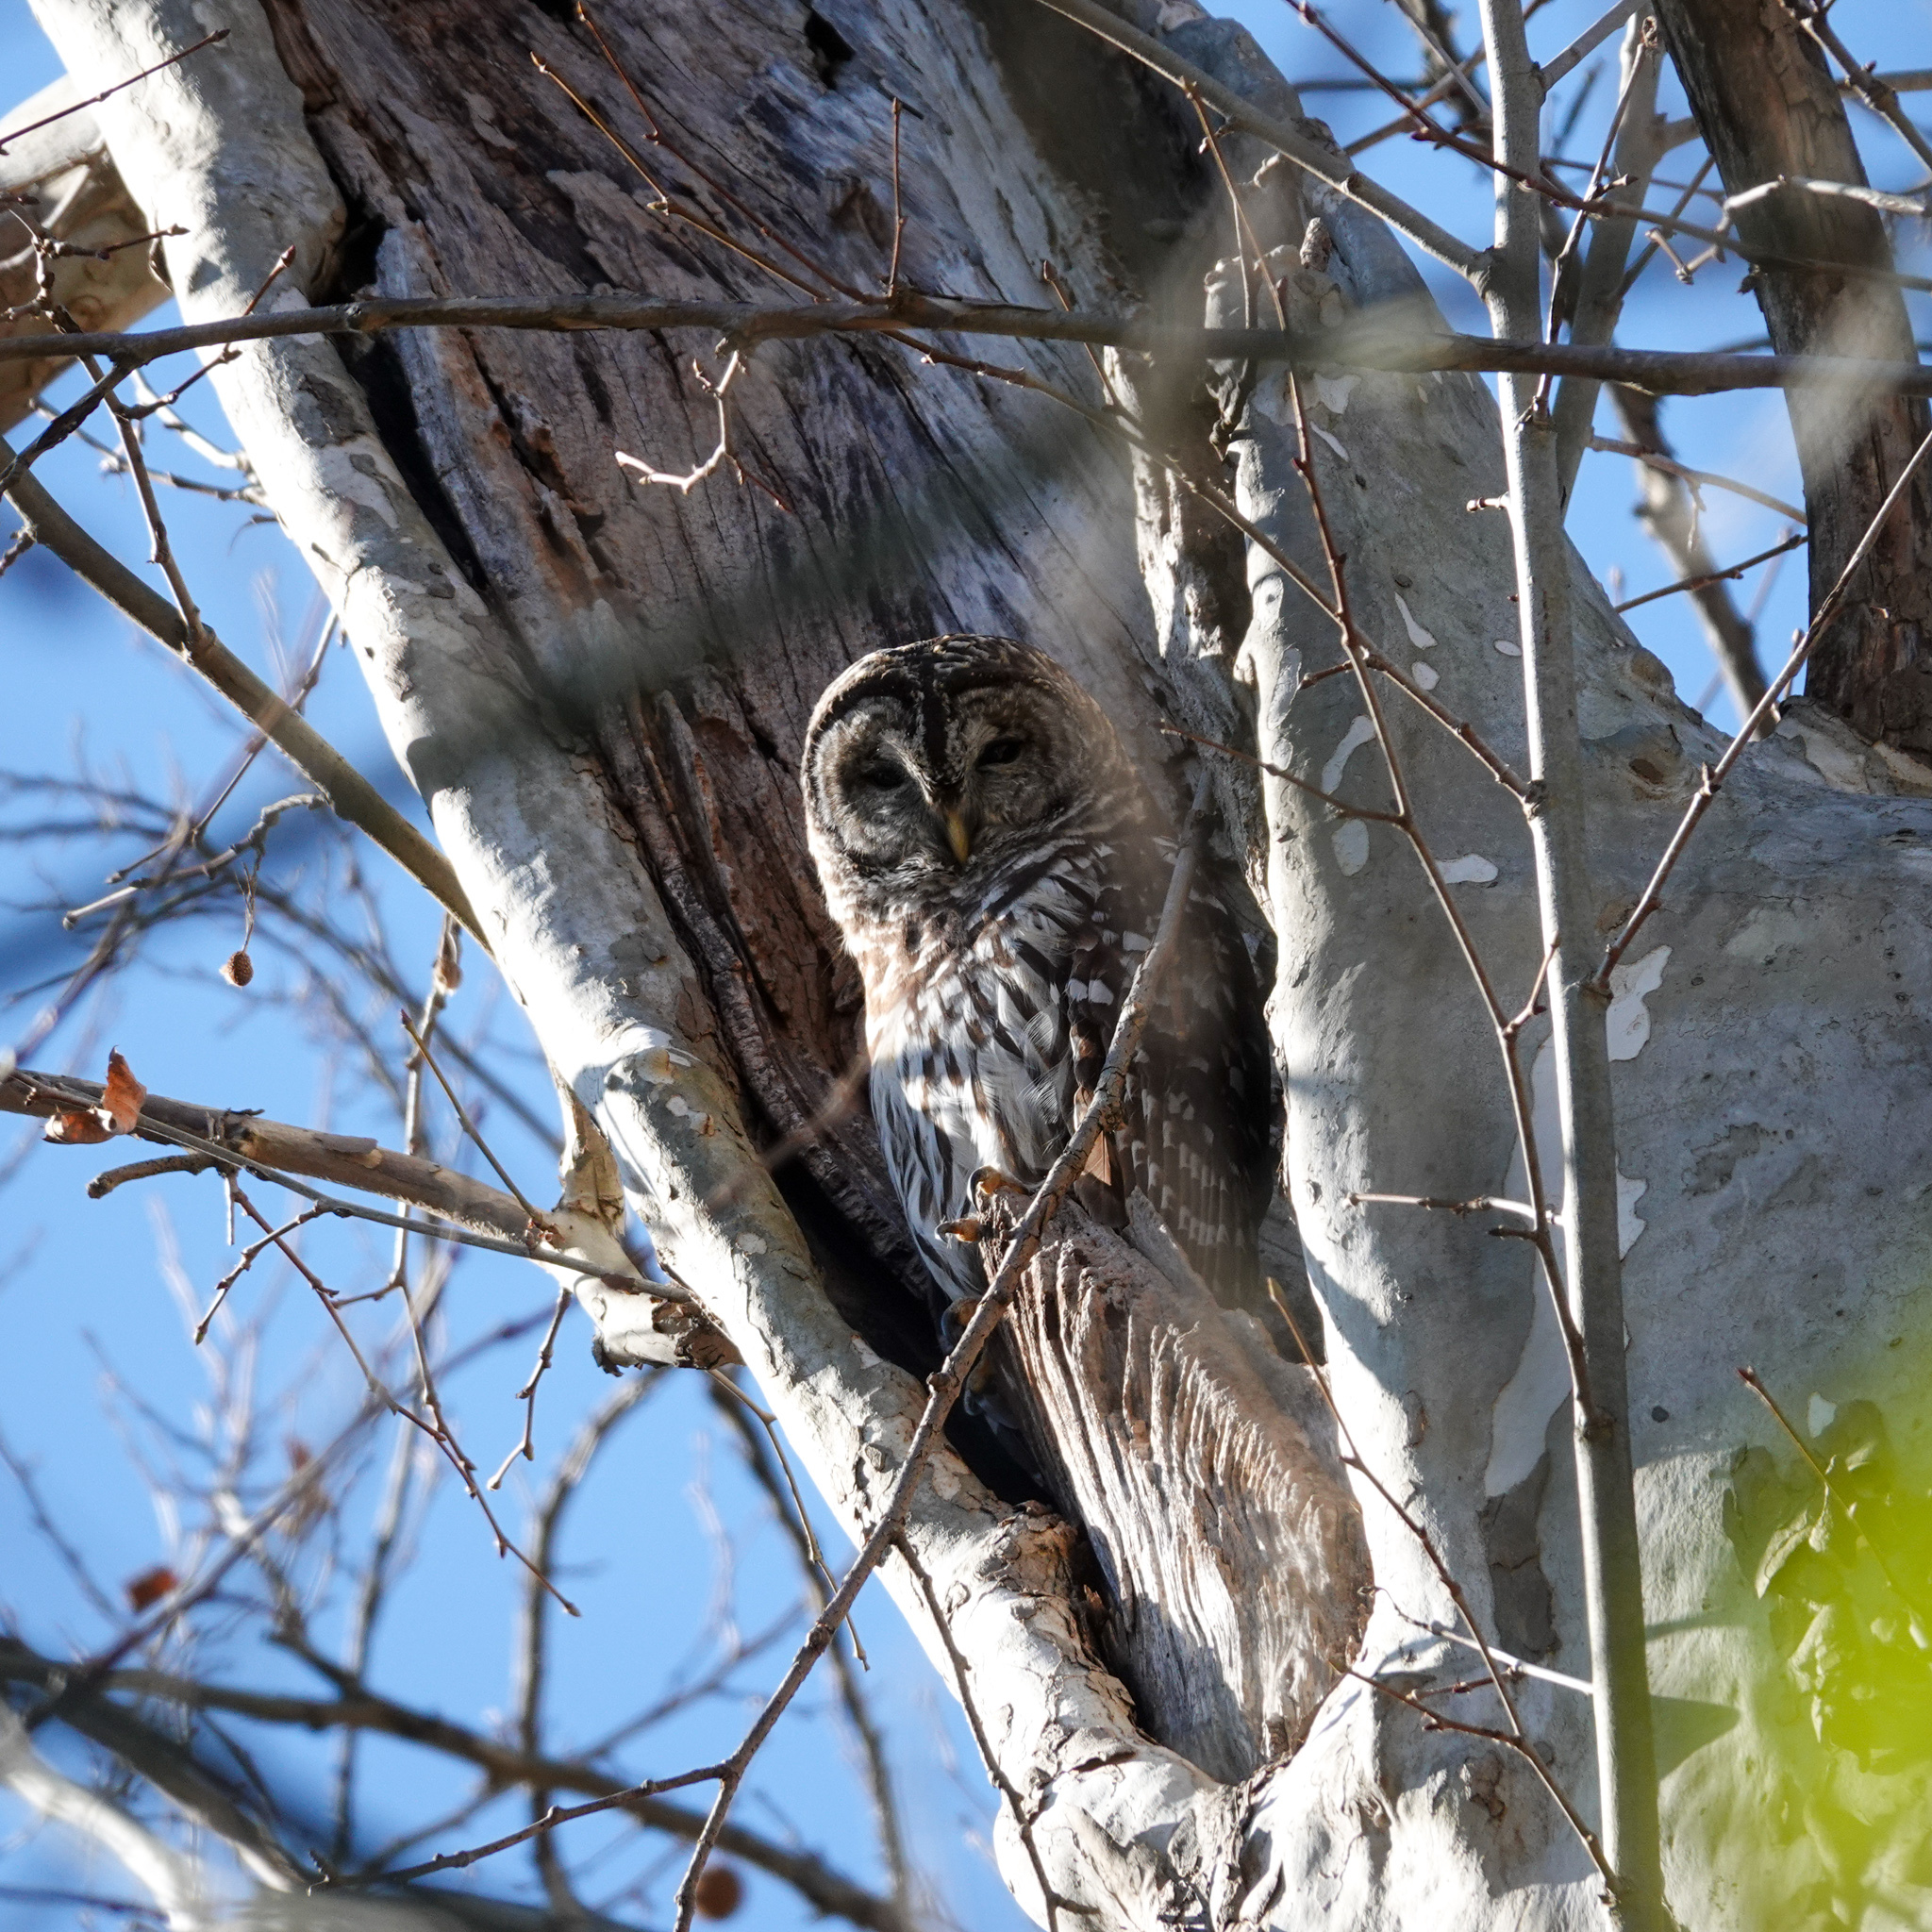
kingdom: Animalia
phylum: Chordata
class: Aves
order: Strigiformes
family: Strigidae
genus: Strix
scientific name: Strix varia
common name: Barred owl
